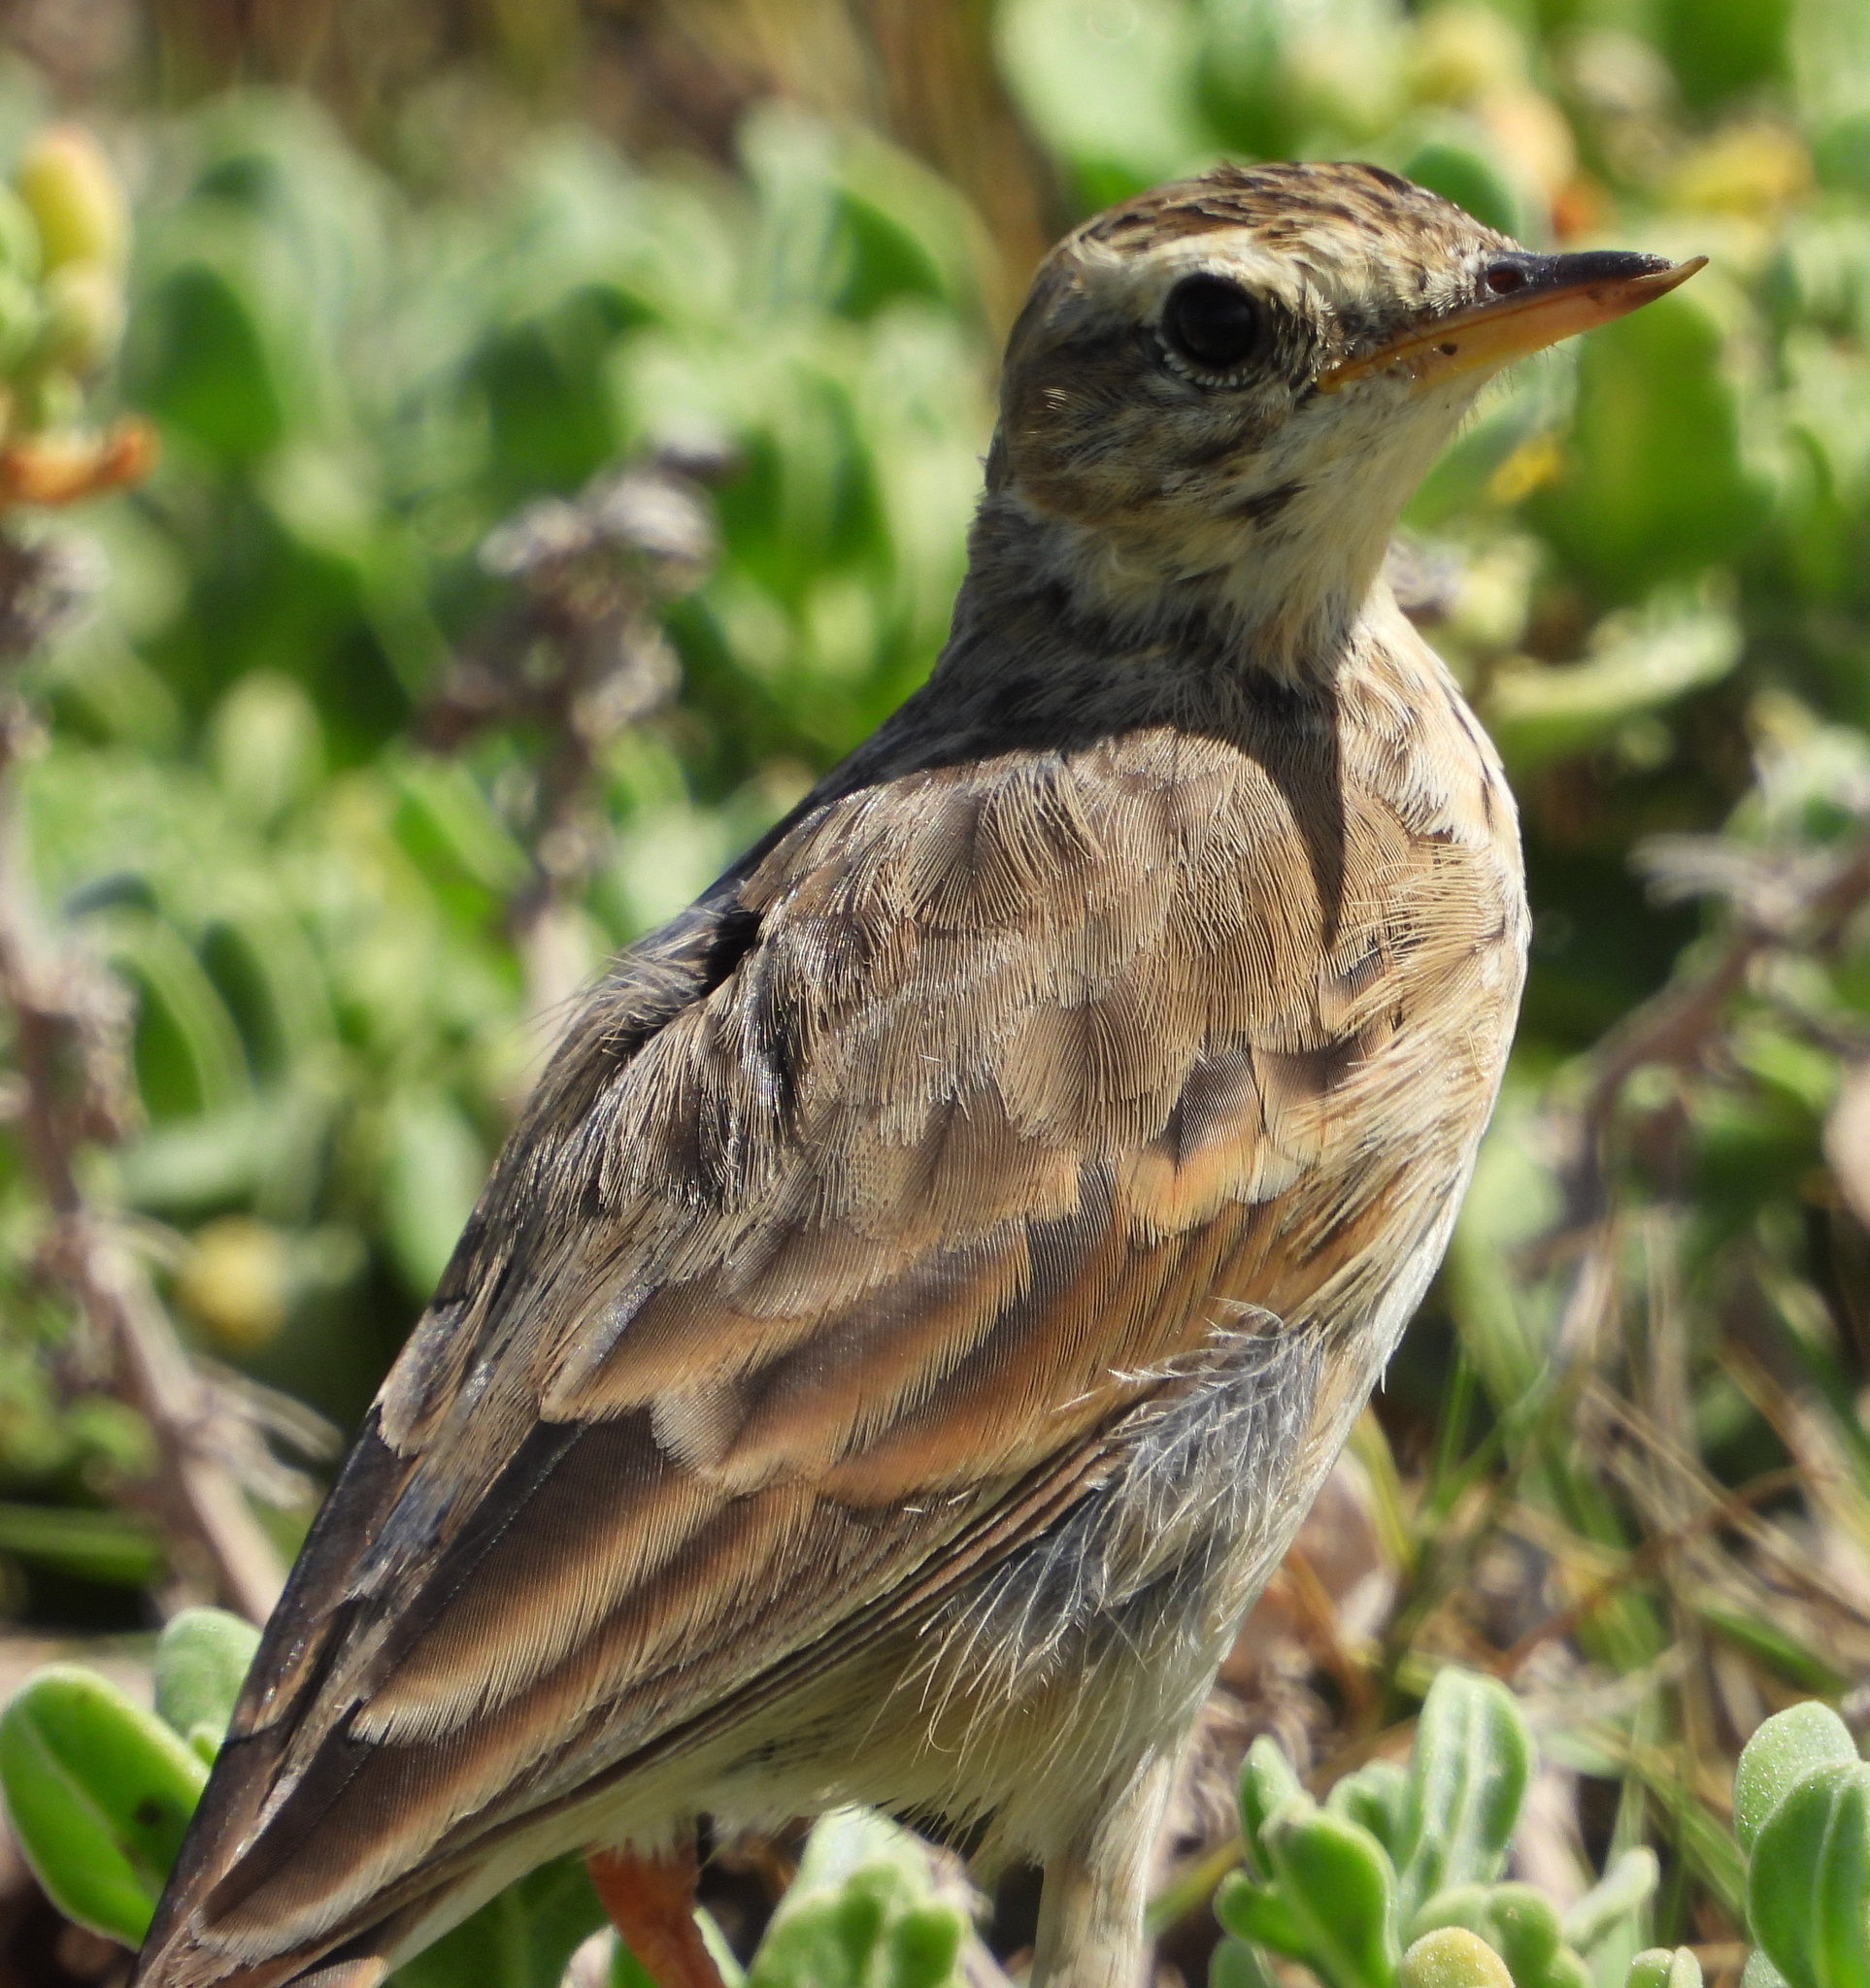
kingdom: Animalia
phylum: Chordata
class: Aves
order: Passeriformes
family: Motacillidae
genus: Anthus
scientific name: Anthus cinnamomeus
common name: African pipit
